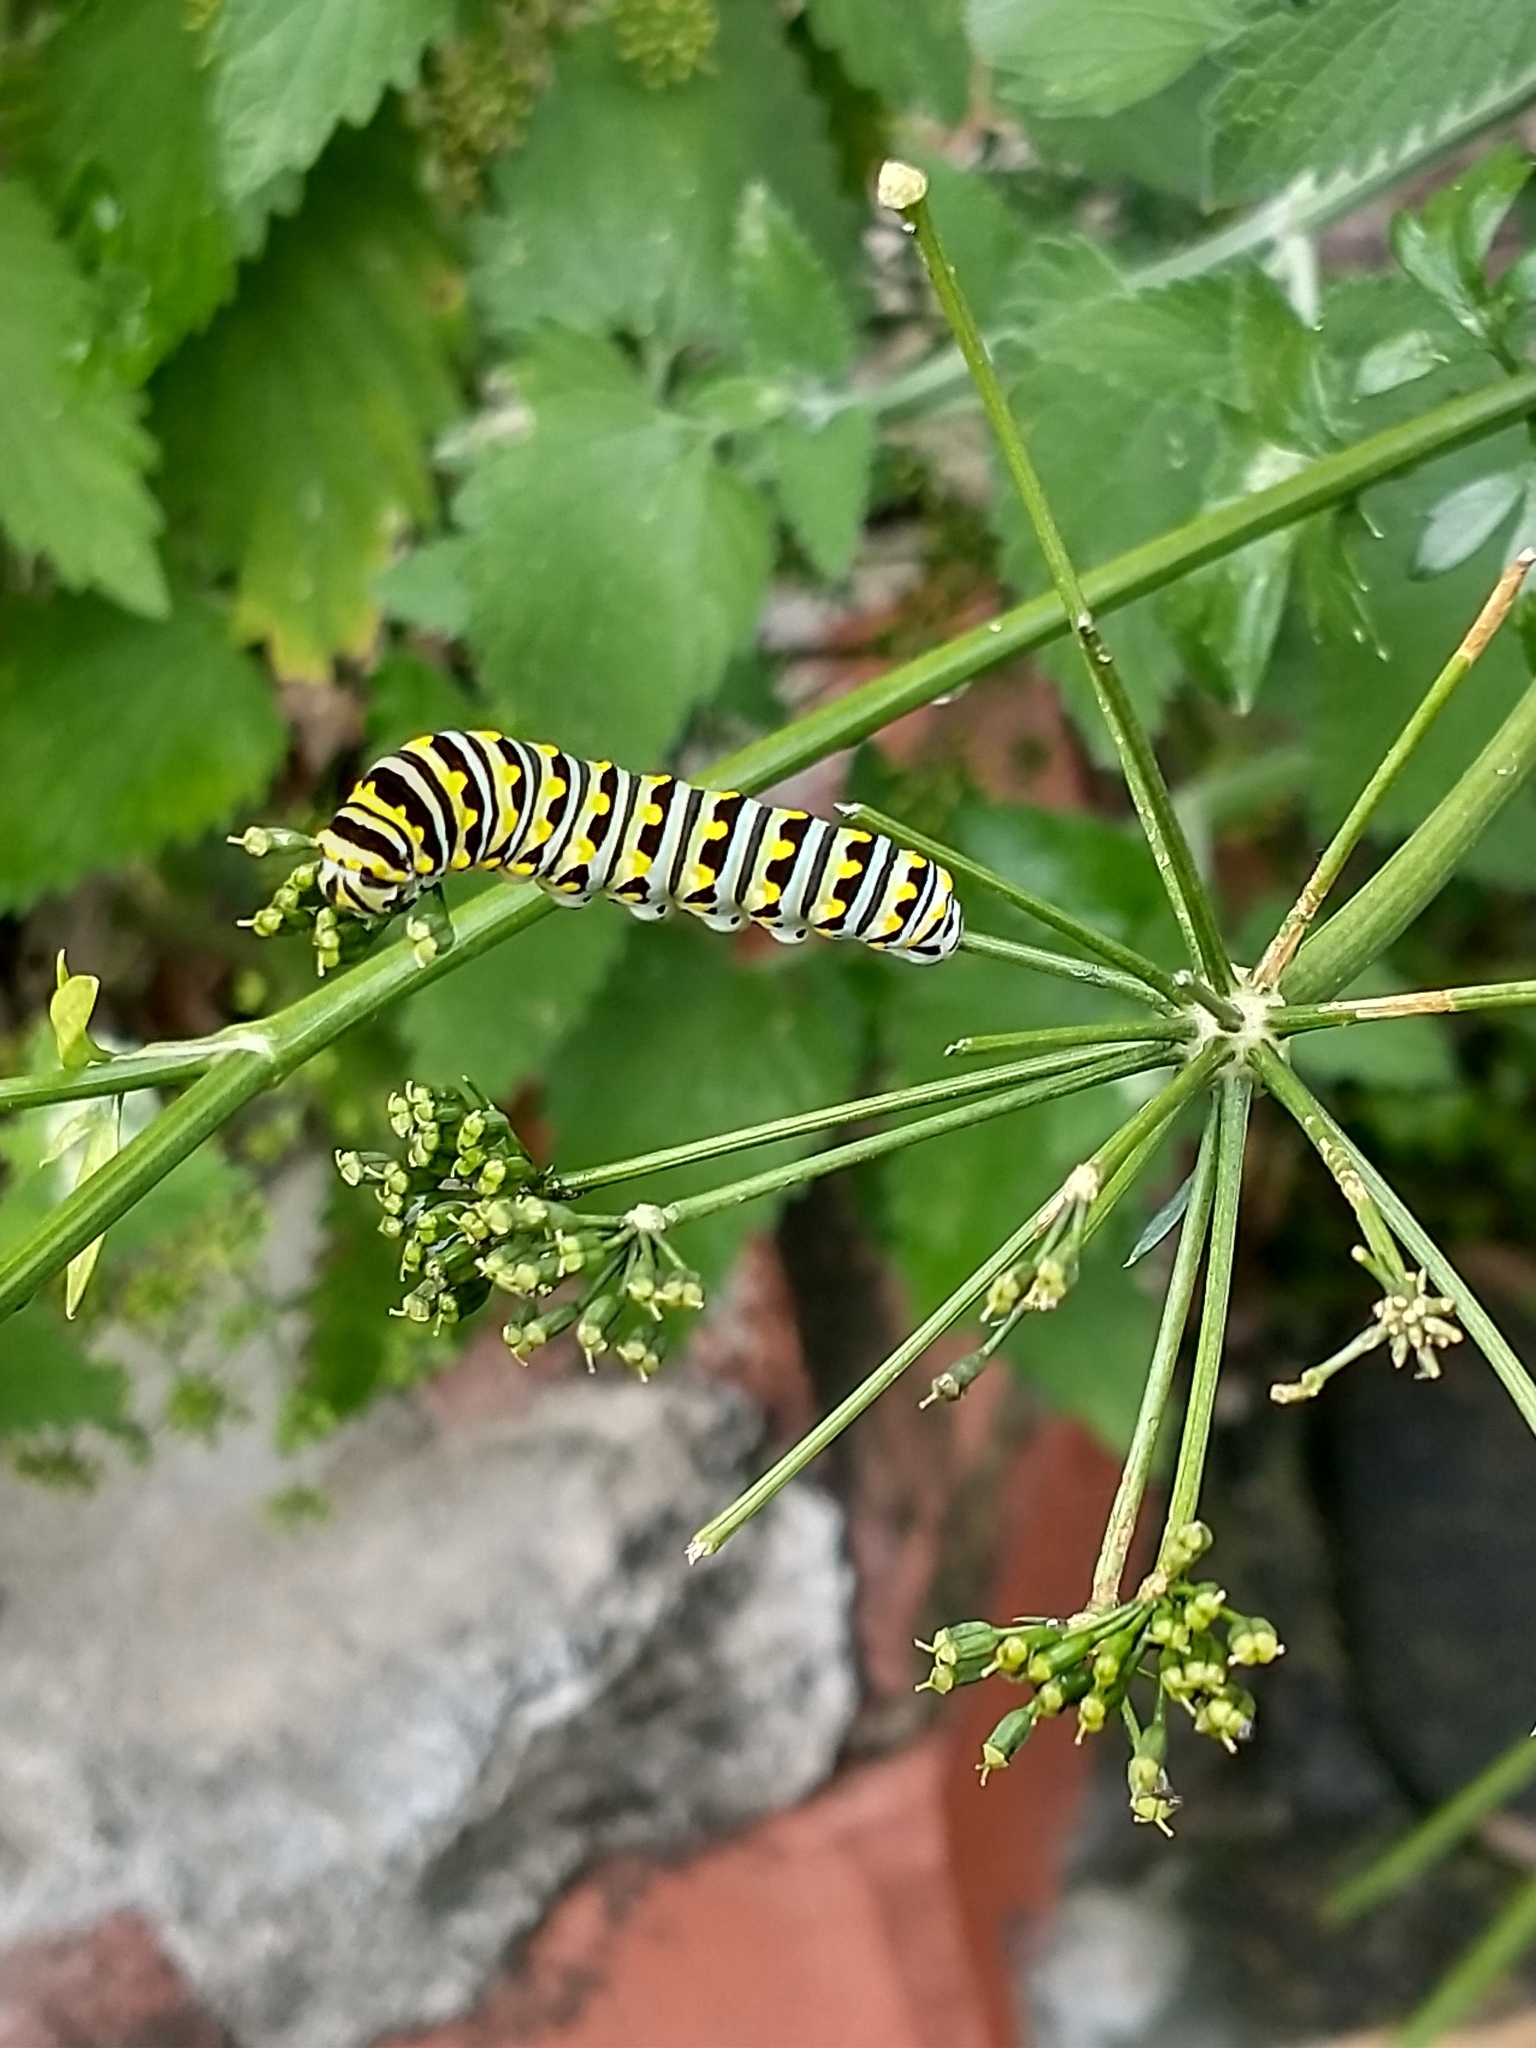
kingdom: Animalia
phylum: Arthropoda
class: Insecta
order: Lepidoptera
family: Papilionidae
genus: Papilio
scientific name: Papilio polyxenes
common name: Black swallowtail
